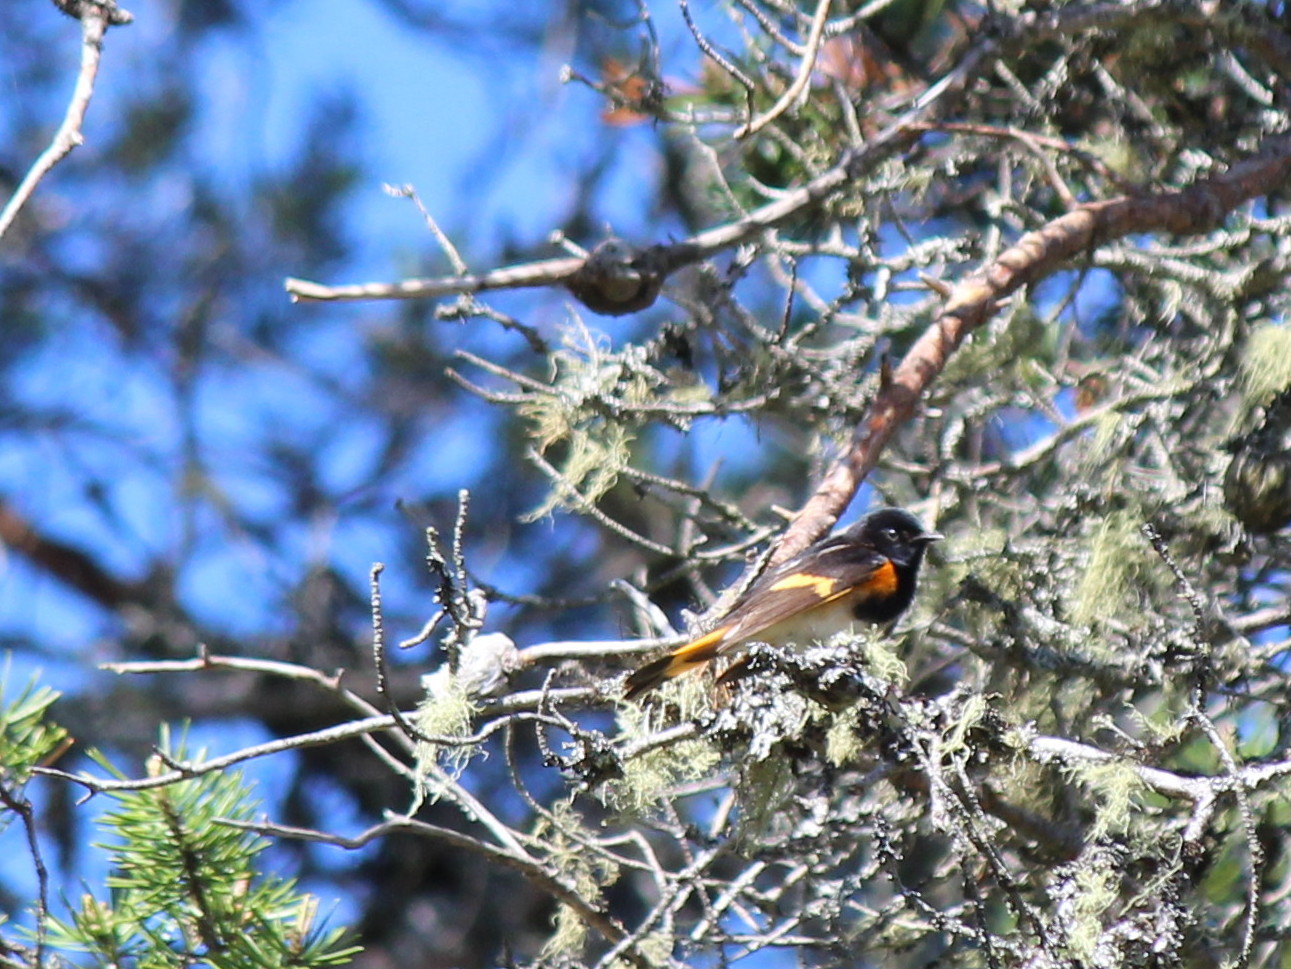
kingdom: Animalia
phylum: Chordata
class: Aves
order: Passeriformes
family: Parulidae
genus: Setophaga
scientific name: Setophaga ruticilla
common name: American redstart
